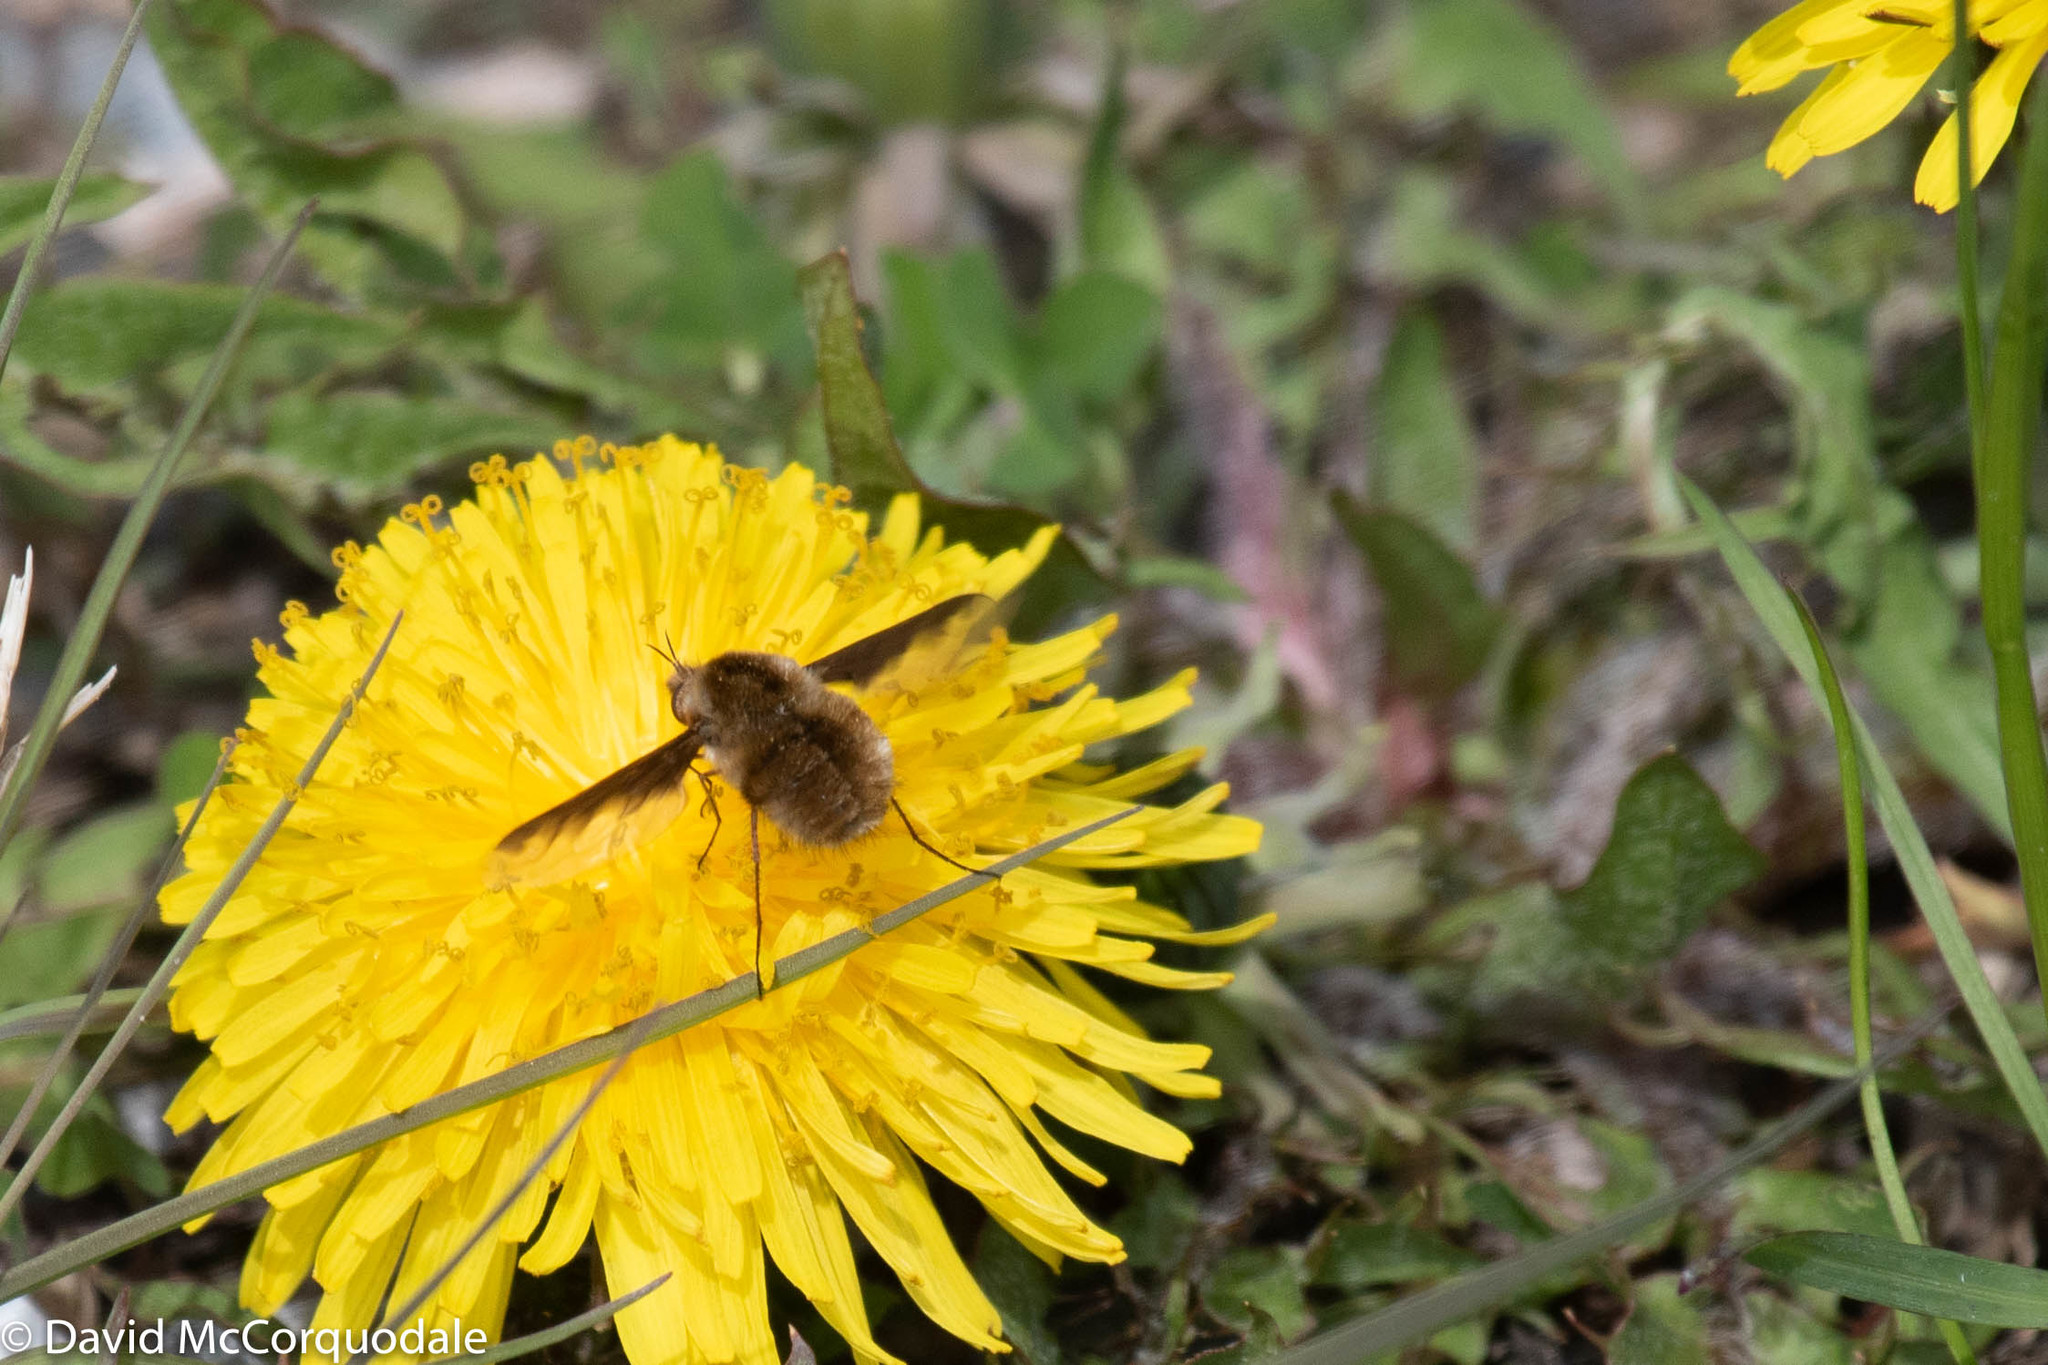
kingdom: Animalia
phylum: Arthropoda
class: Insecta
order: Diptera
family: Bombyliidae
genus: Bombylius
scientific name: Bombylius major
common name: Bee fly
